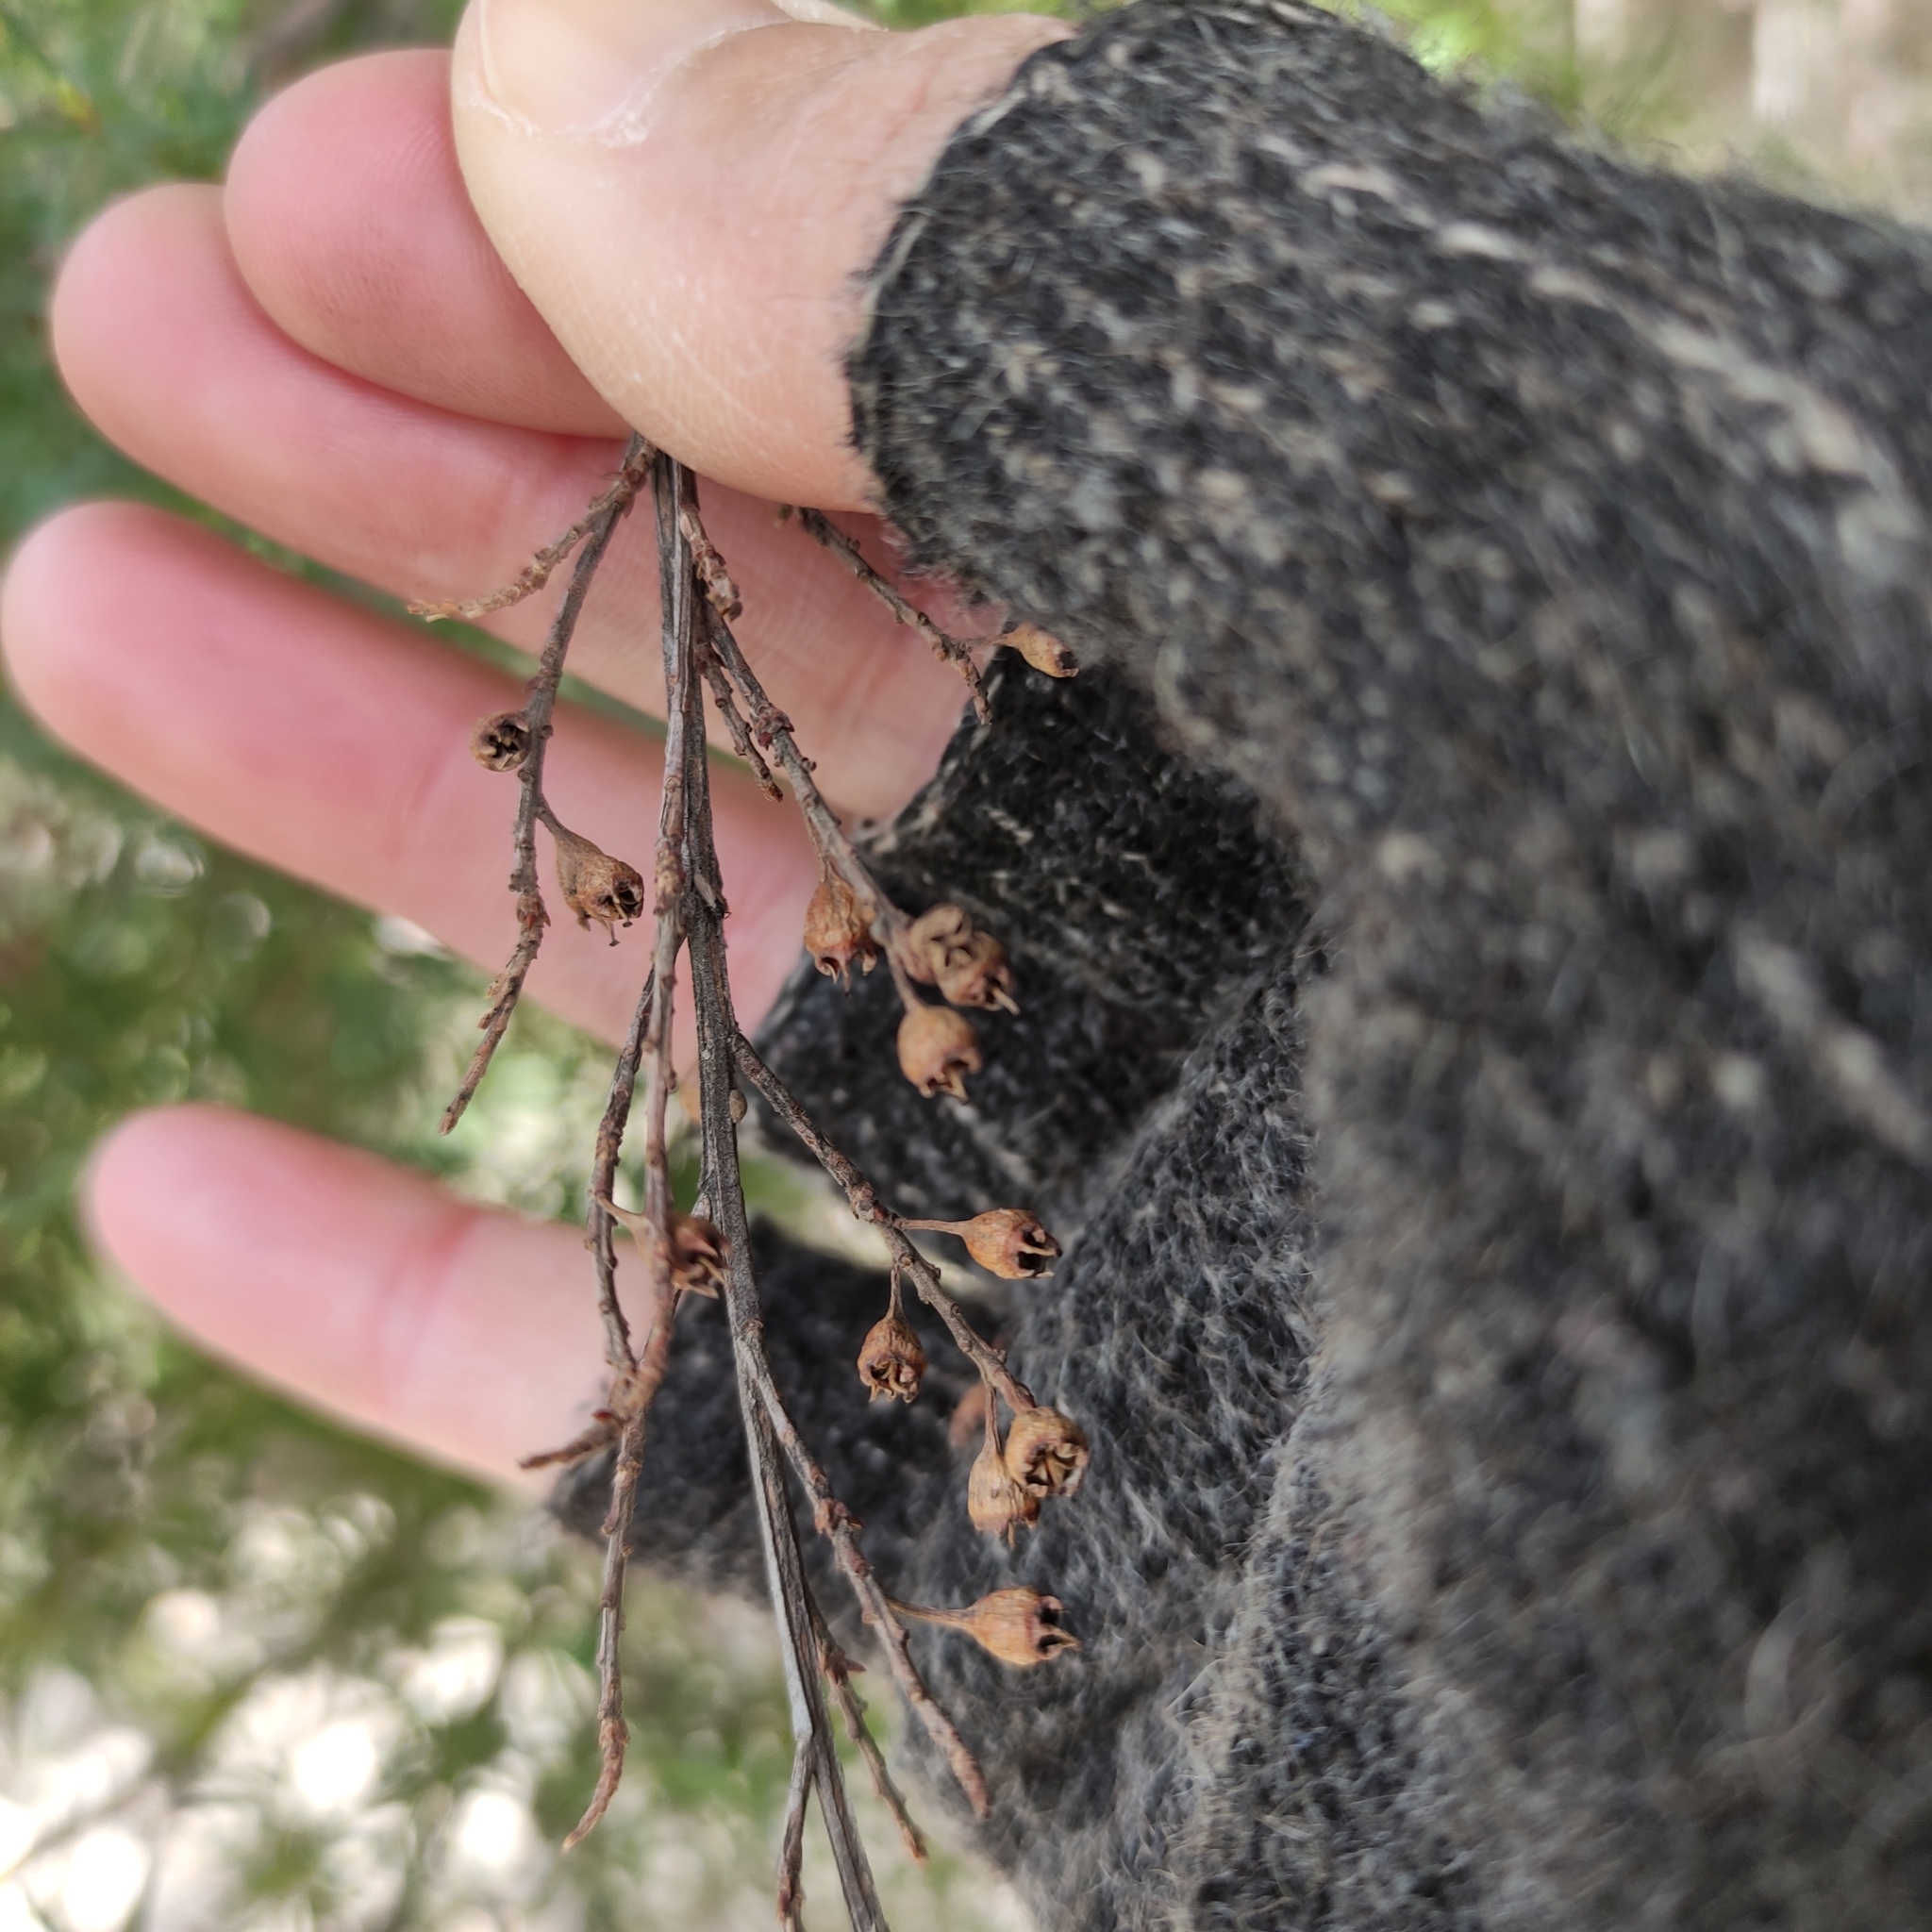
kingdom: Plantae
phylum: Tracheophyta
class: Magnoliopsida
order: Myrtales
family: Myrtaceae
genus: Kunzea
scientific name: Kunzea robusta
